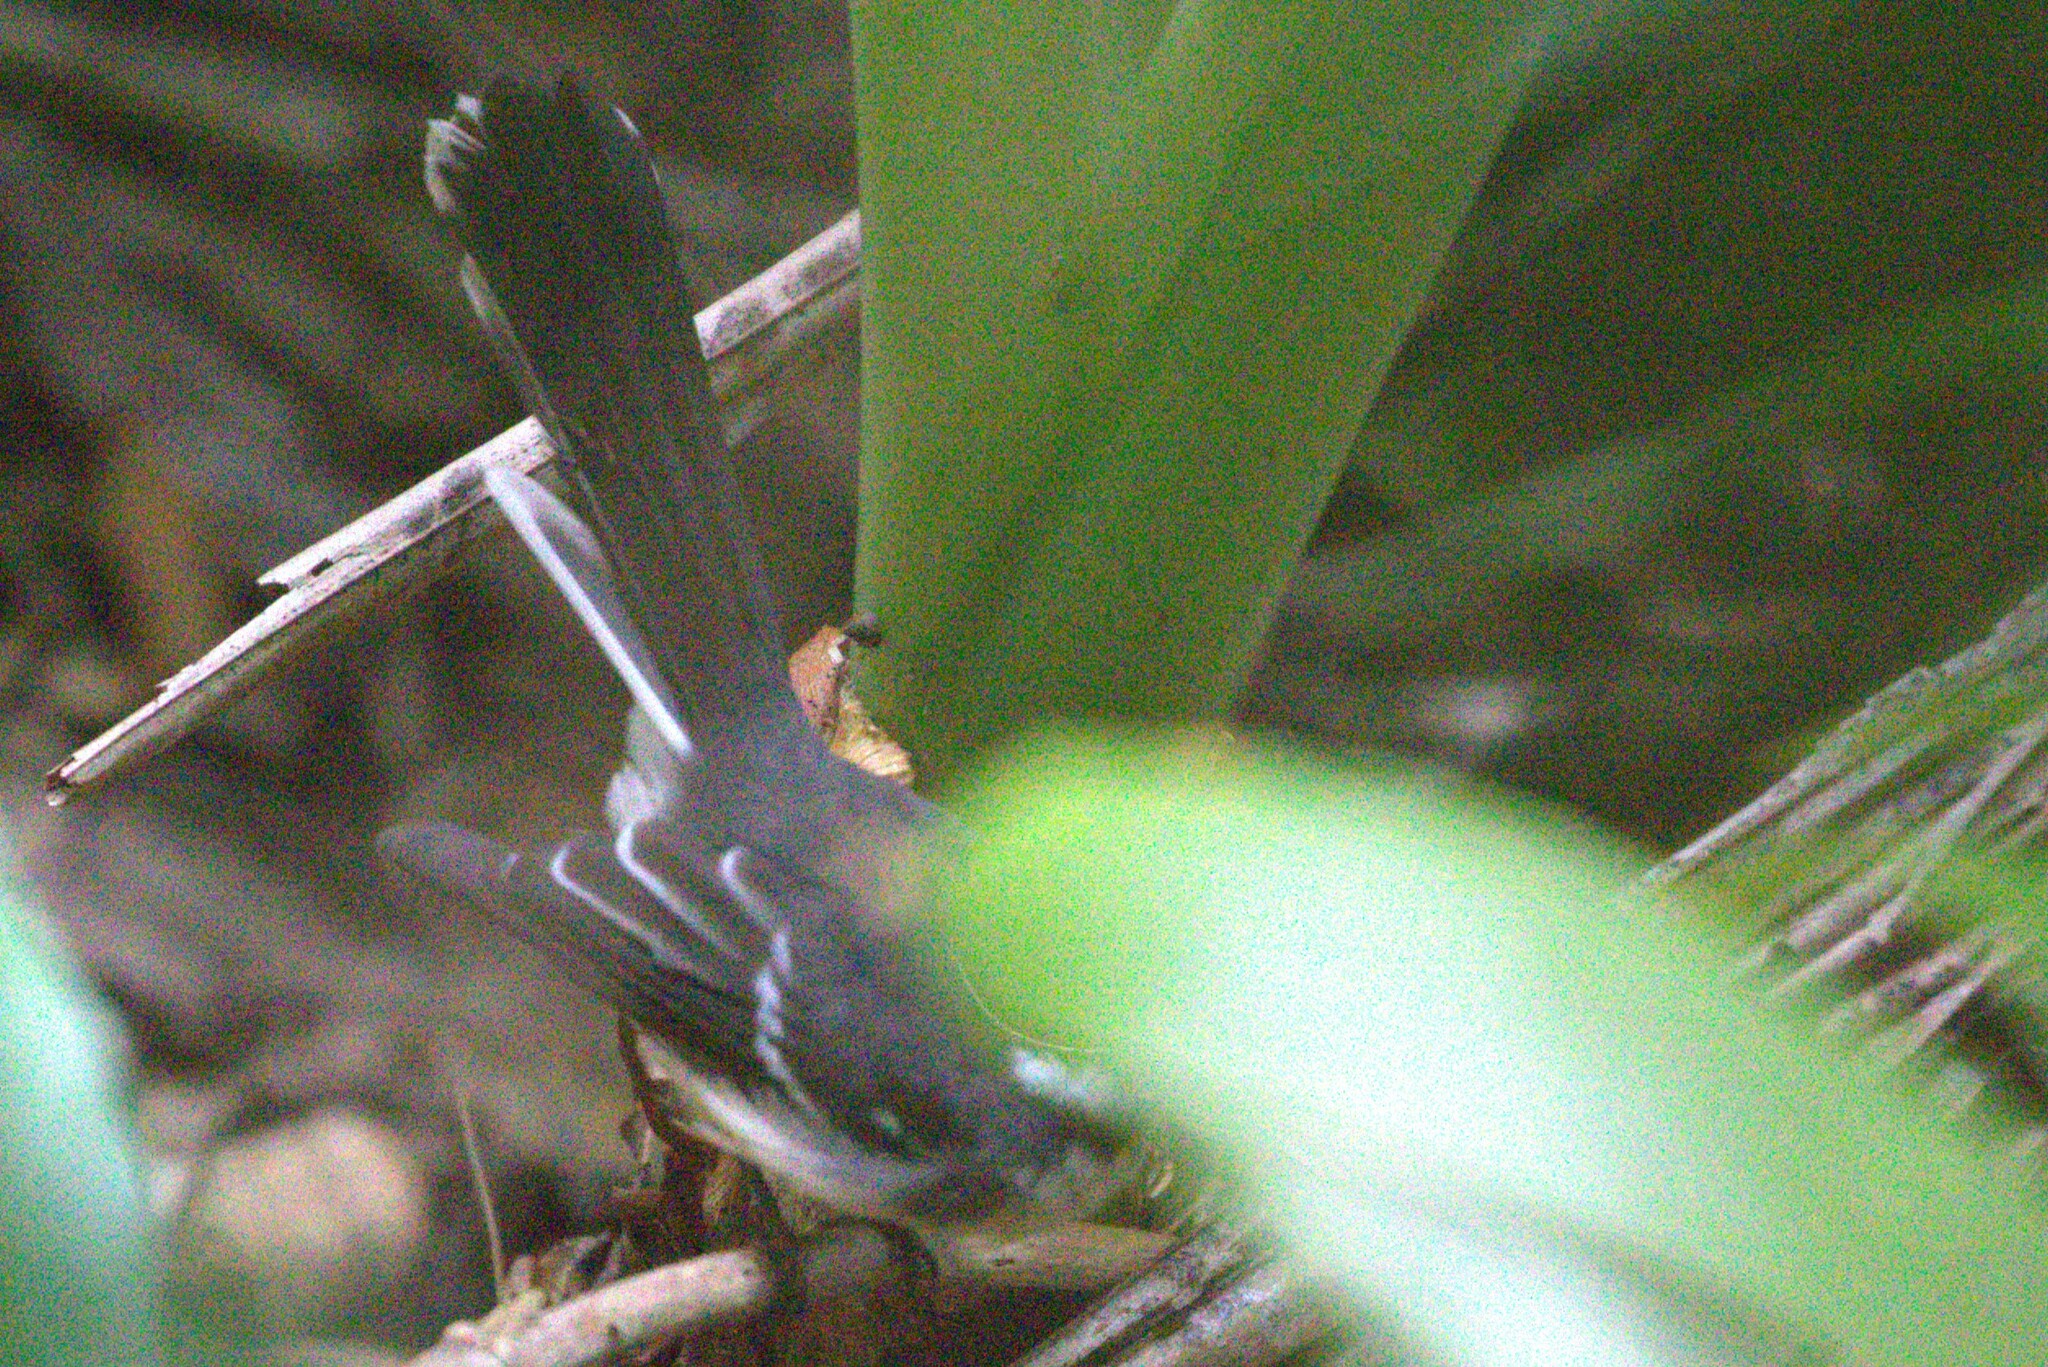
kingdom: Animalia
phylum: Chordata
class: Aves
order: Passeriformes
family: Rhipiduridae
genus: Rhipidura
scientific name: Rhipidura albiscapa
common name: Grey fantail
